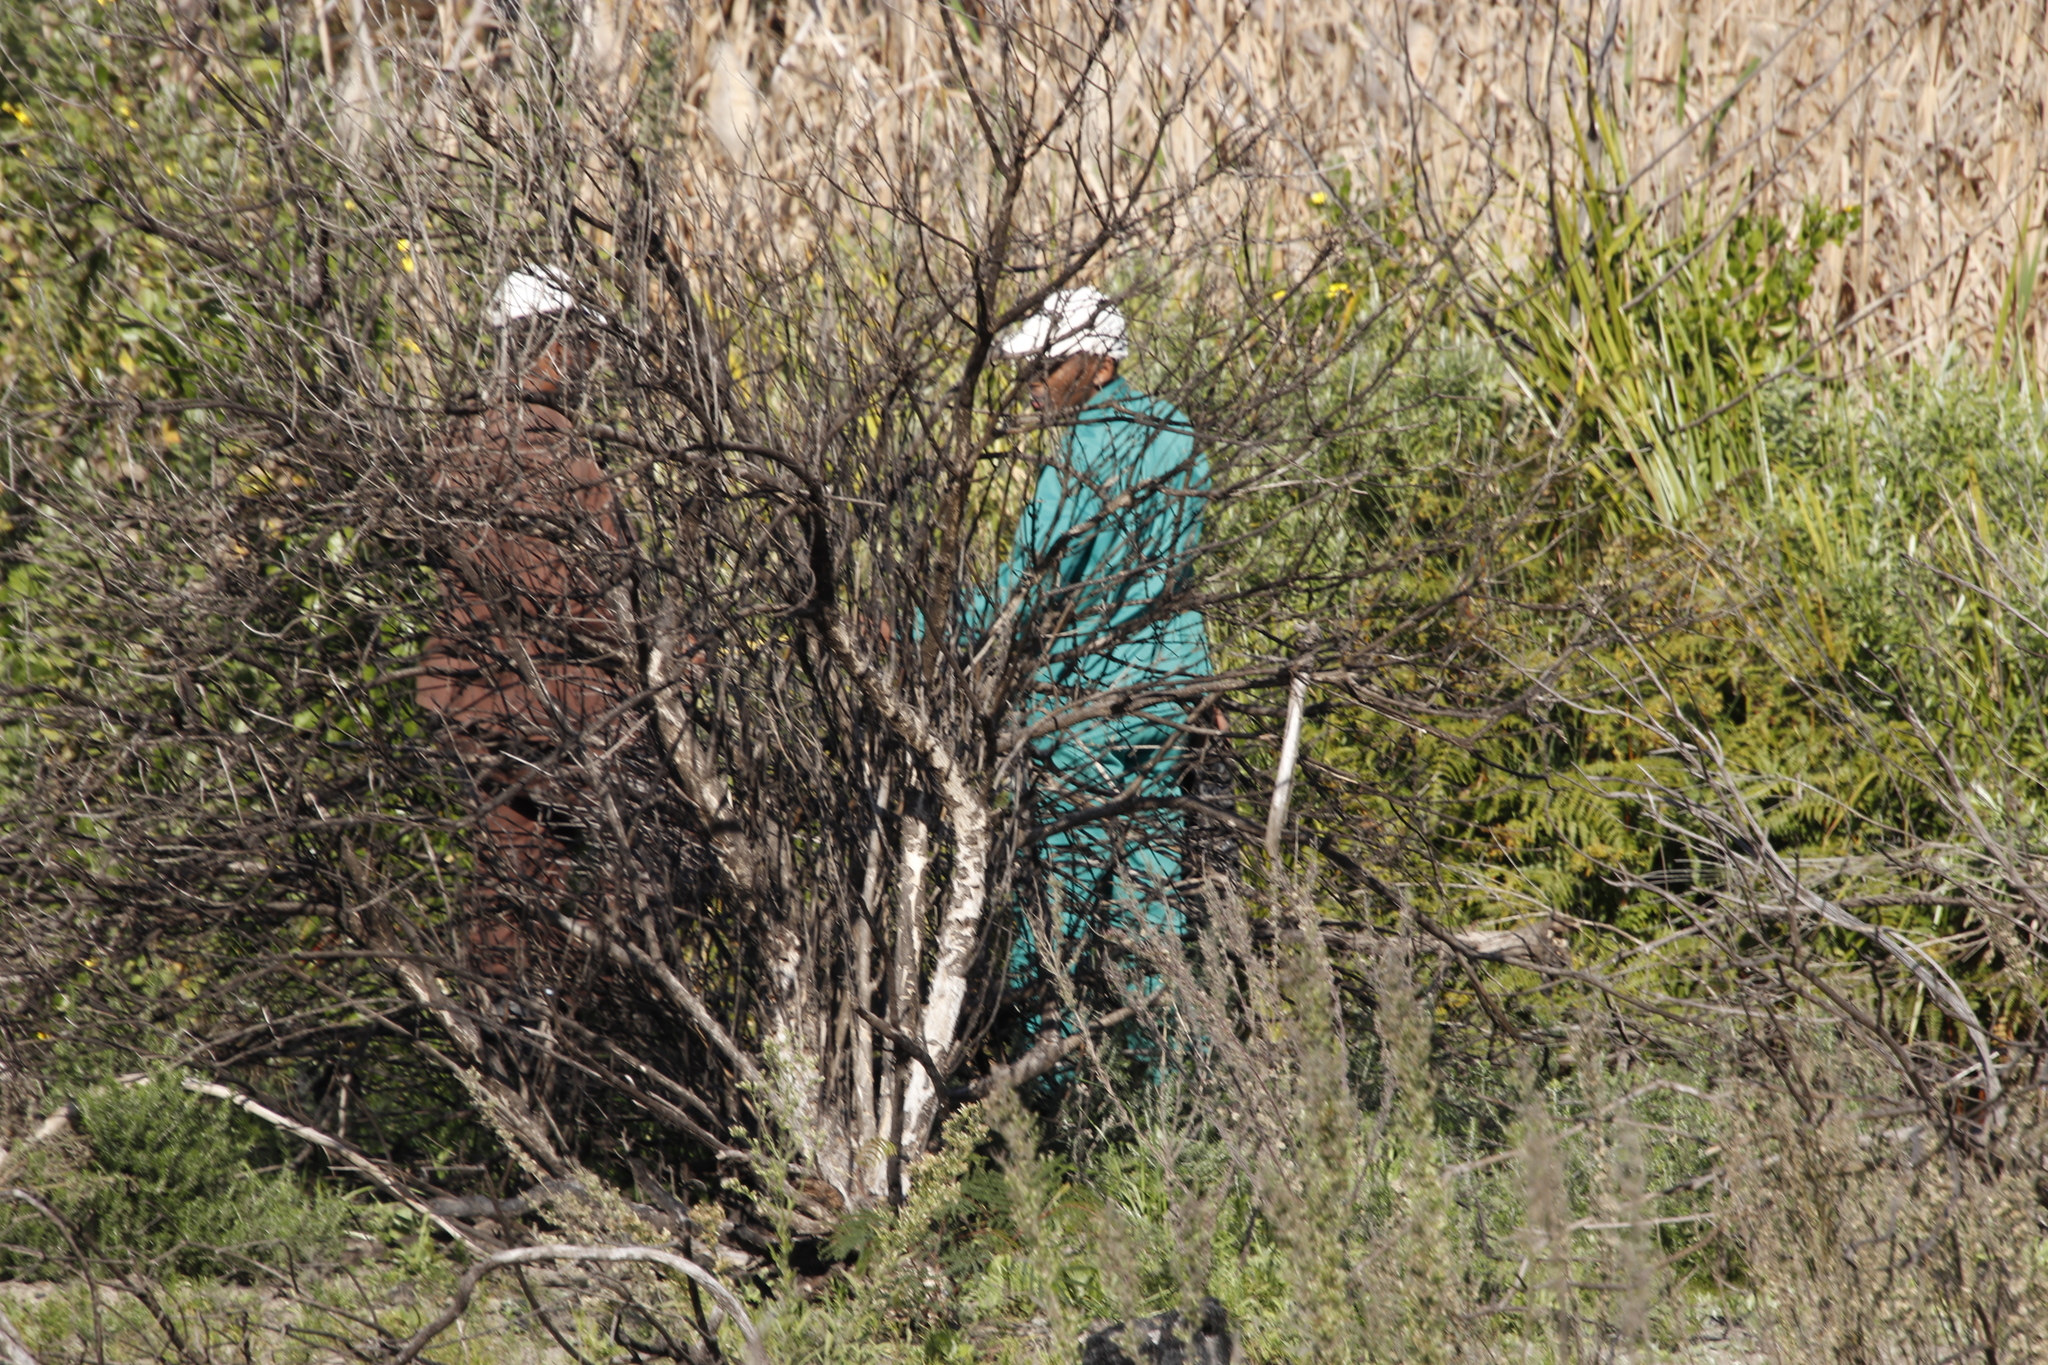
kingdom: Plantae
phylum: Tracheophyta
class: Polypodiopsida
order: Polypodiales
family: Dennstaedtiaceae
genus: Pteridium
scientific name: Pteridium aquilinum
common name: Bracken
